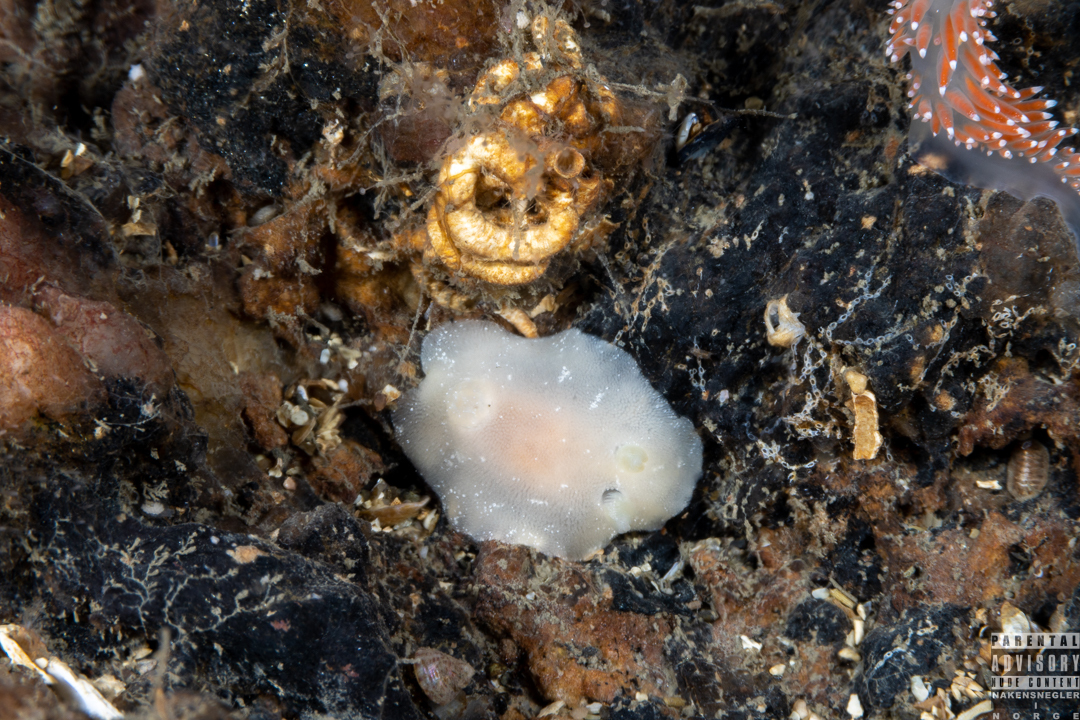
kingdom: Animalia
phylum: Mollusca
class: Gastropoda
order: Nudibranchia
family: Discodorididae
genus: Jorunna
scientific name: Jorunna tomentosa
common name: Grey sea slug
